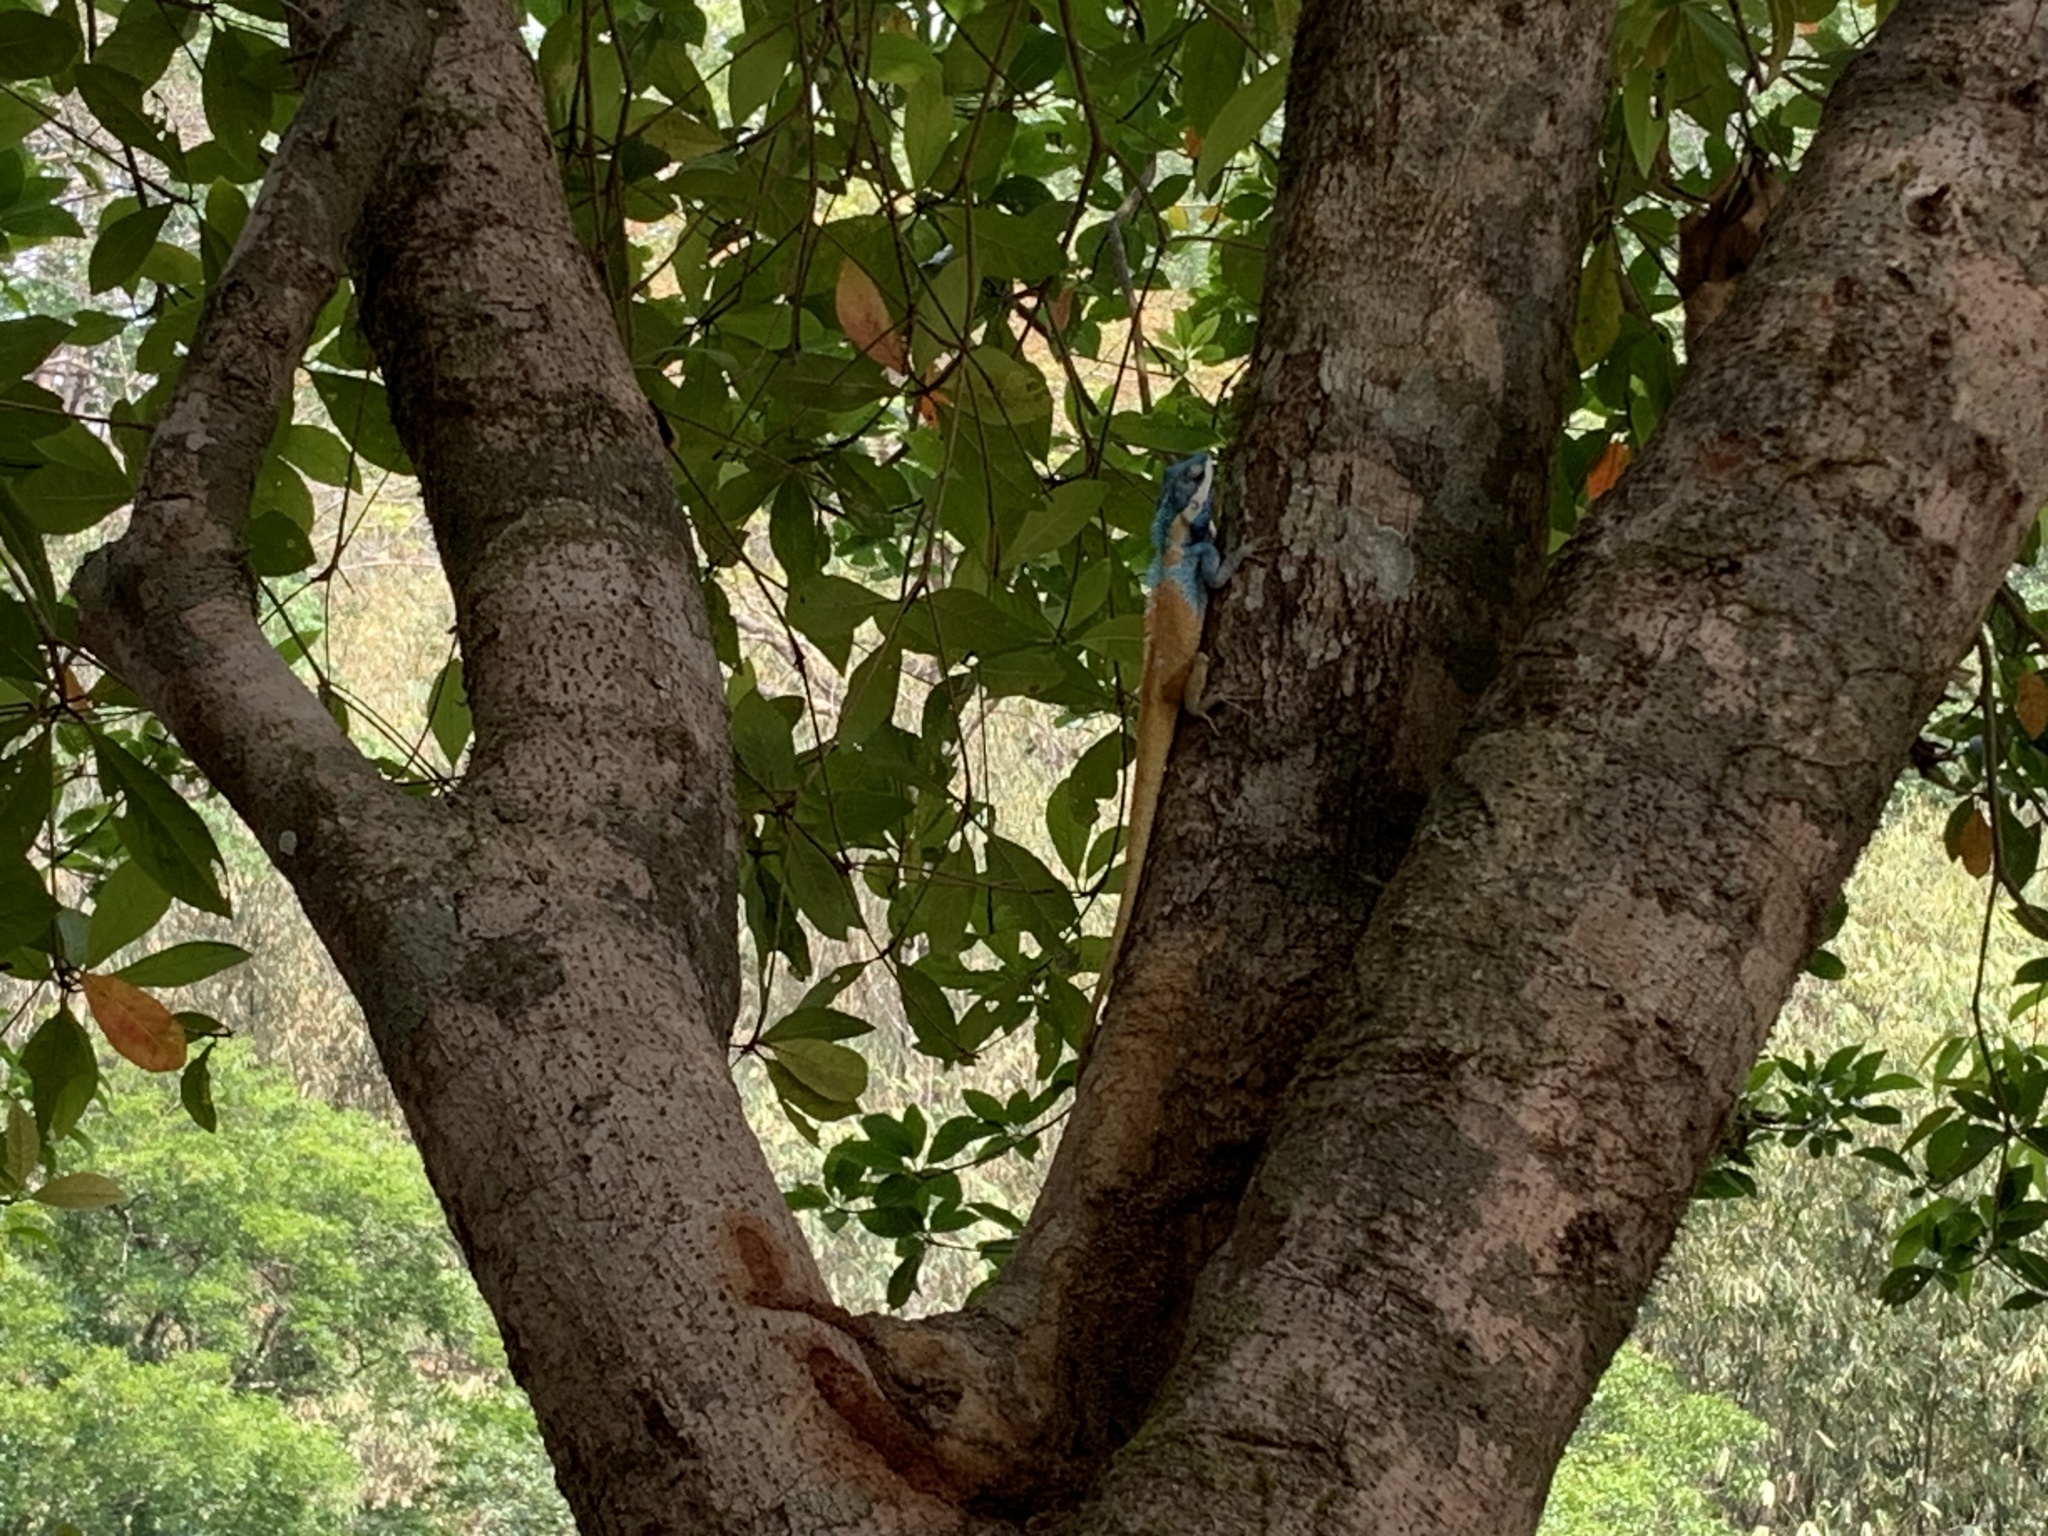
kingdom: Animalia
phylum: Chordata
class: Squamata
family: Agamidae
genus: Calotes
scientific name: Calotes goetzi
